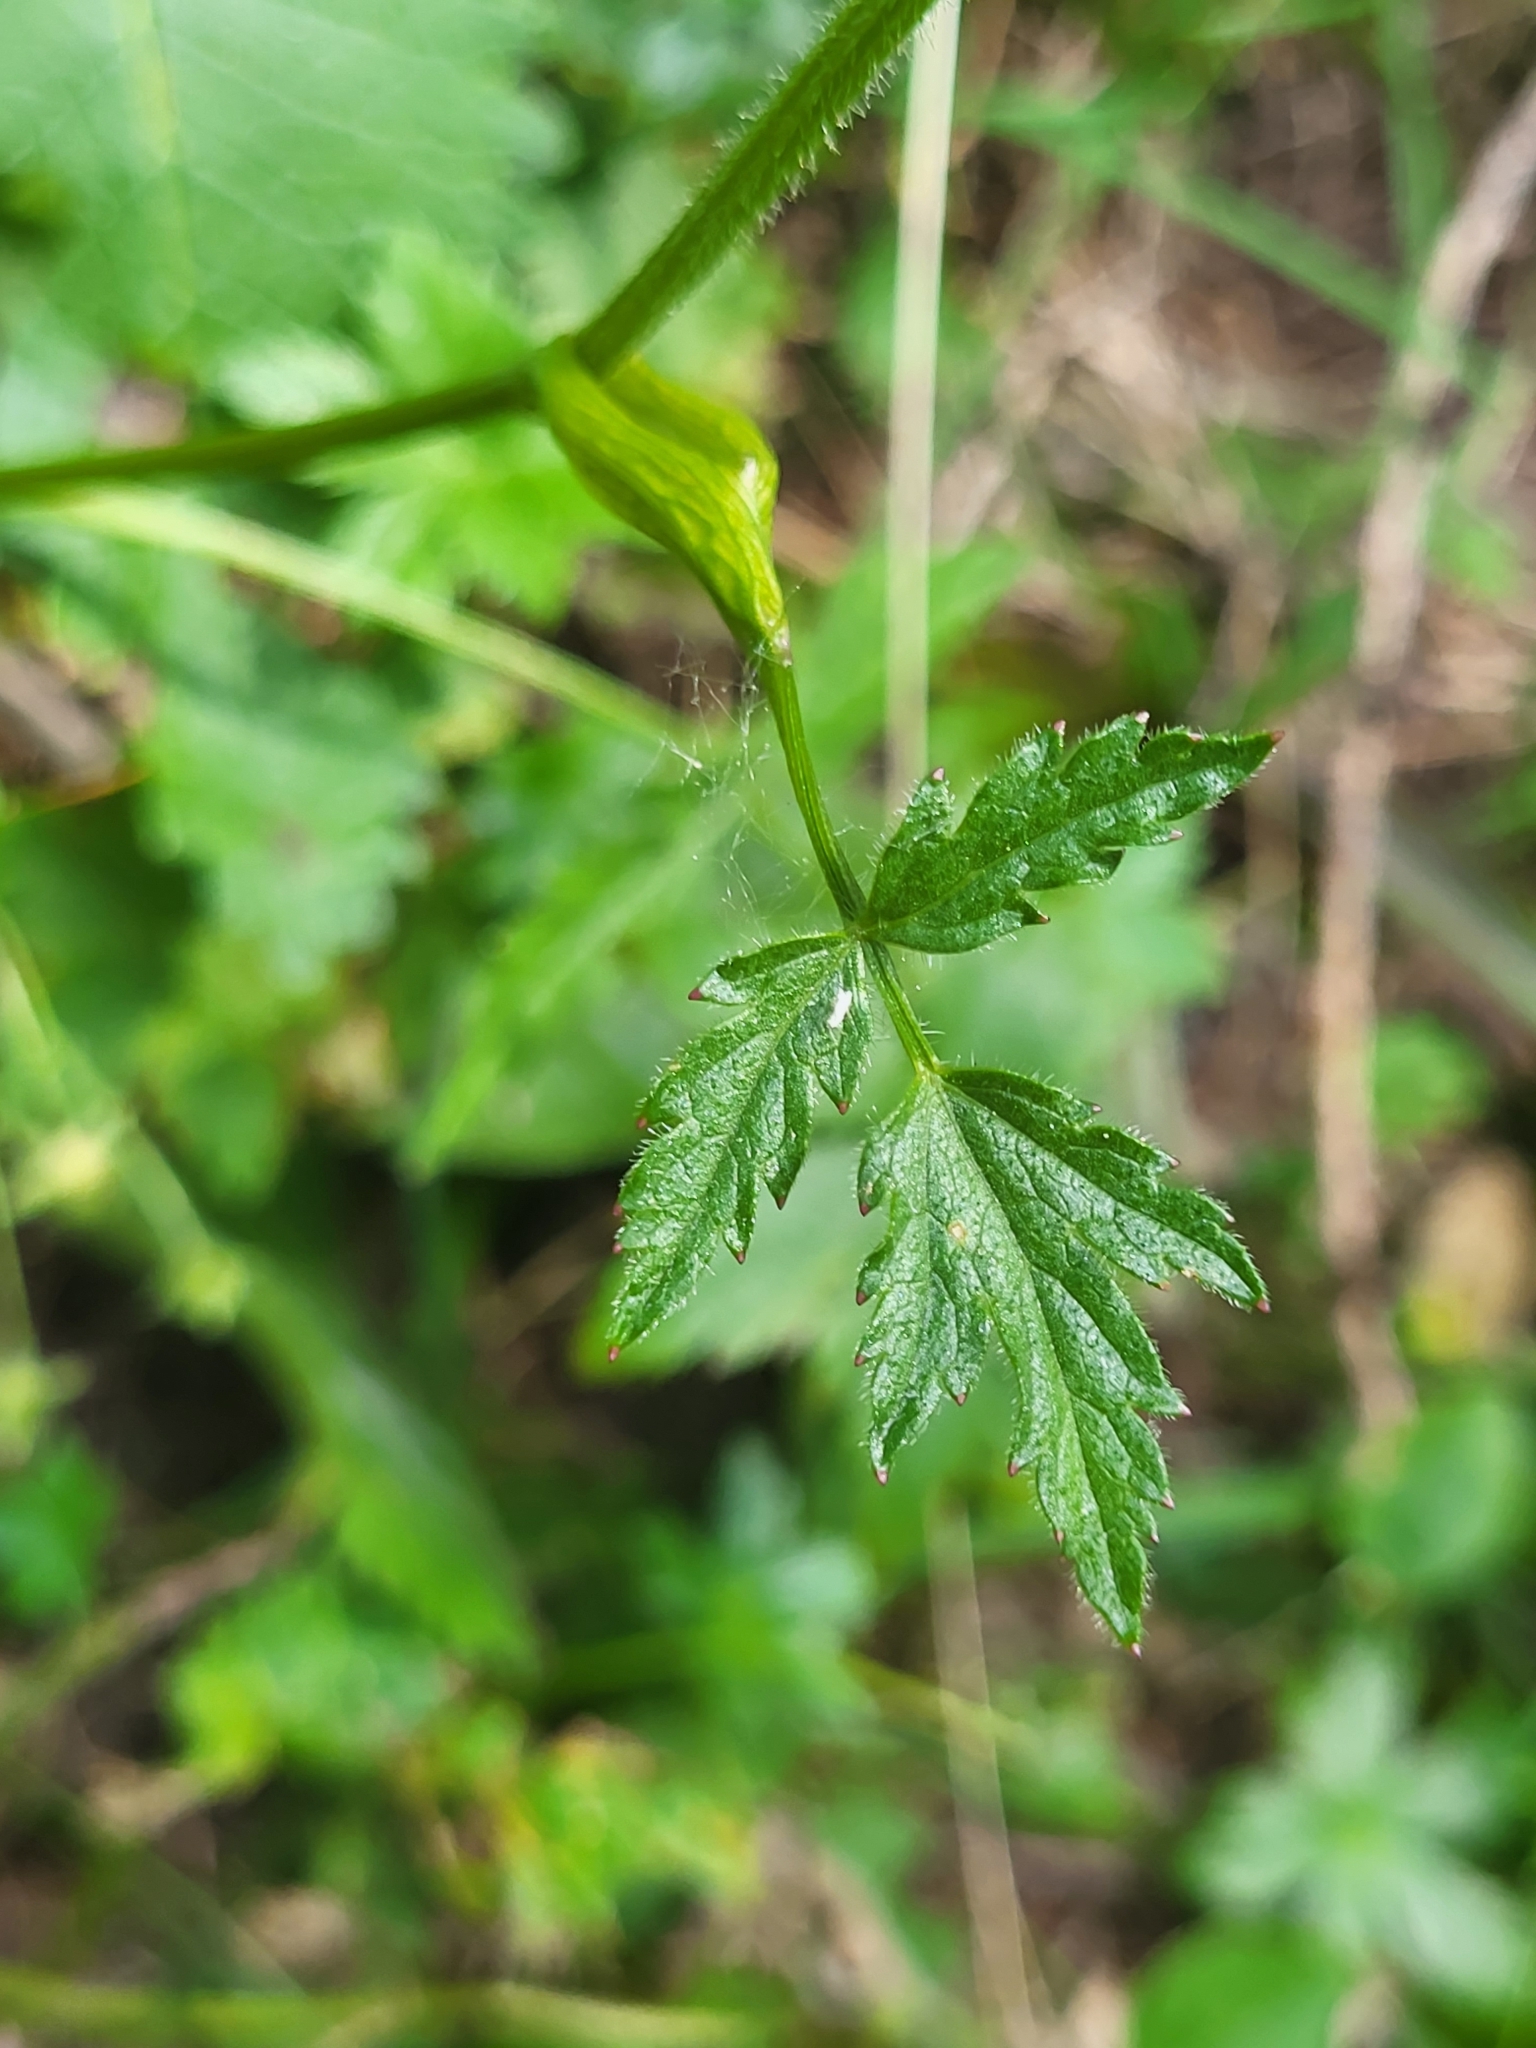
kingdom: Plantae
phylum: Tracheophyta
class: Magnoliopsida
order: Apiales
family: Apiaceae
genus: Heracleum
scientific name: Heracleum austriacum
